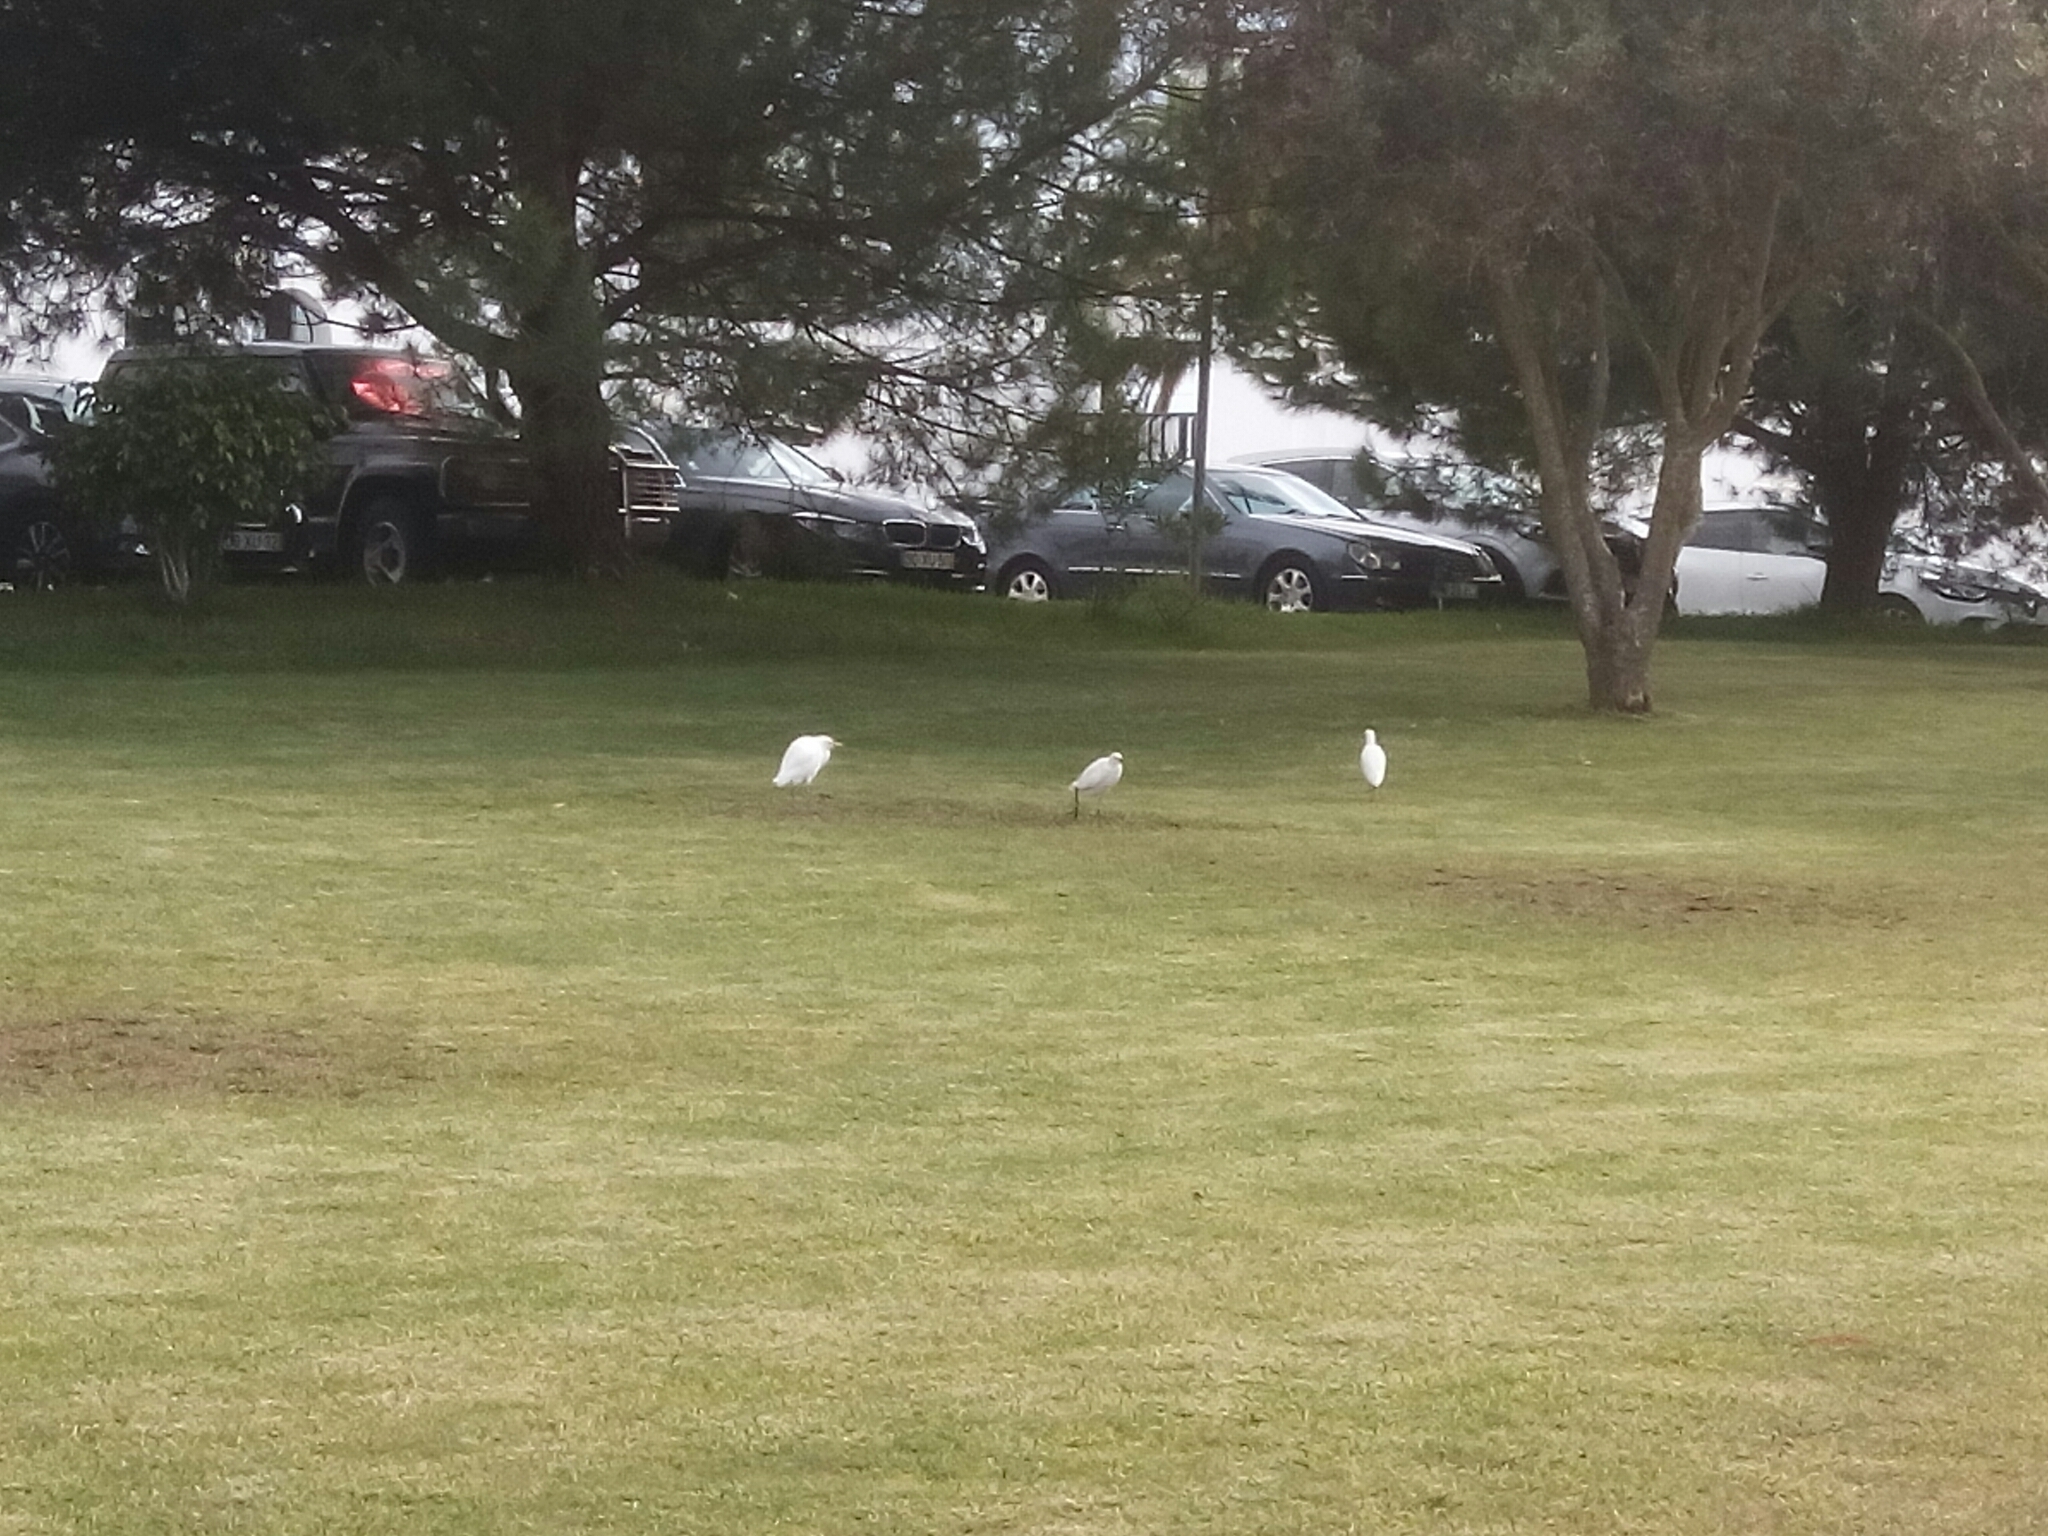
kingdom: Animalia
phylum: Chordata
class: Aves
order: Pelecaniformes
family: Ardeidae
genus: Bubulcus
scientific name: Bubulcus ibis
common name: Cattle egret
